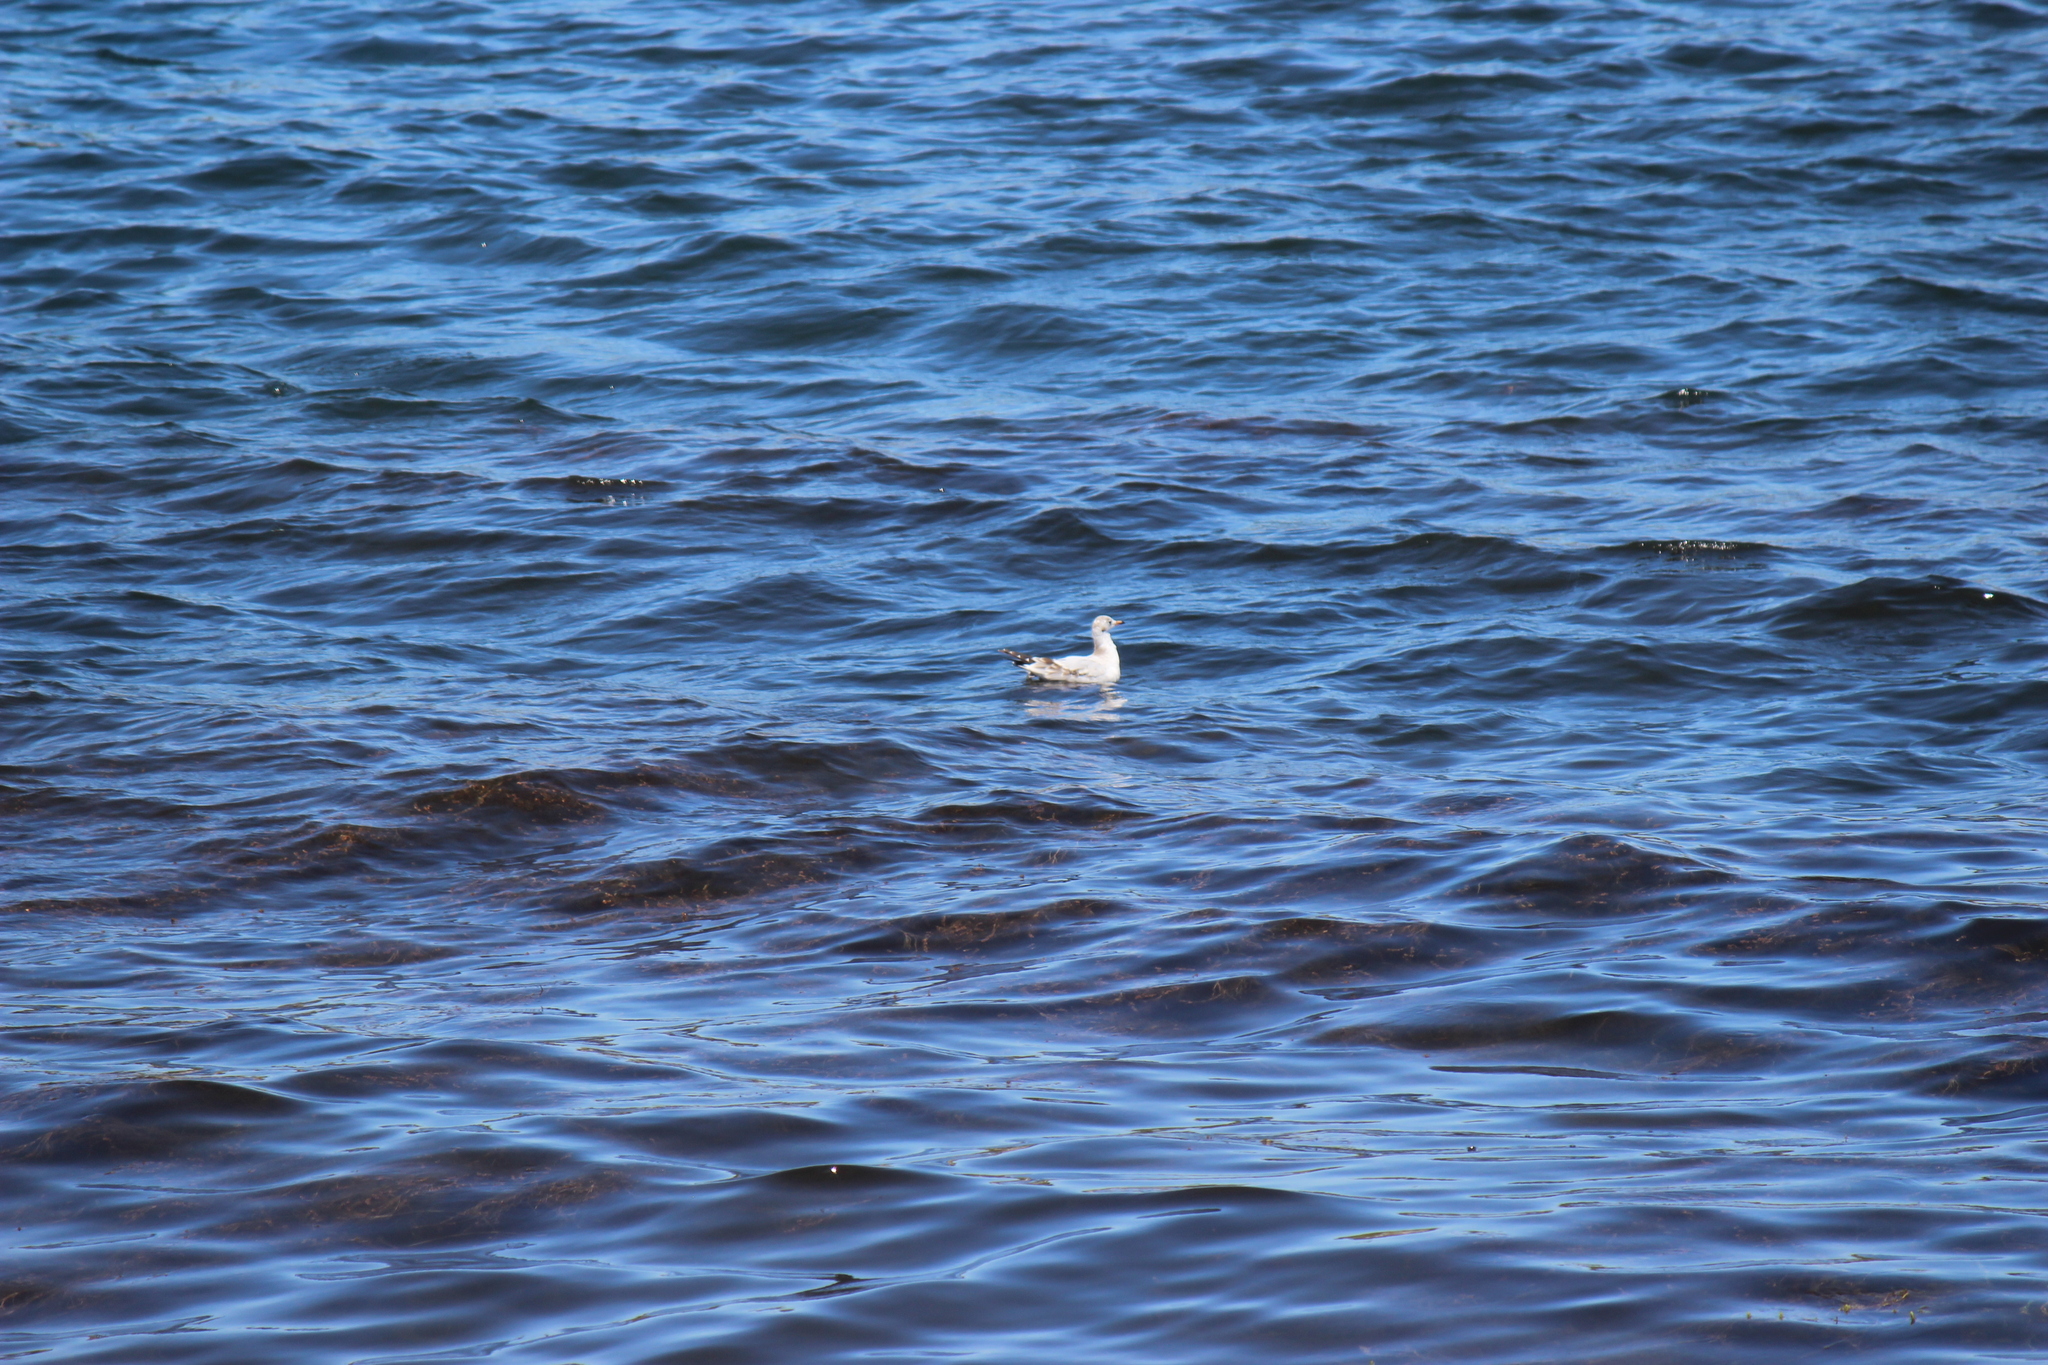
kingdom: Animalia
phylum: Chordata
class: Aves
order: Charadriiformes
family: Laridae
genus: Chroicocephalus
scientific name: Chroicocephalus serranus
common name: Andean gull
